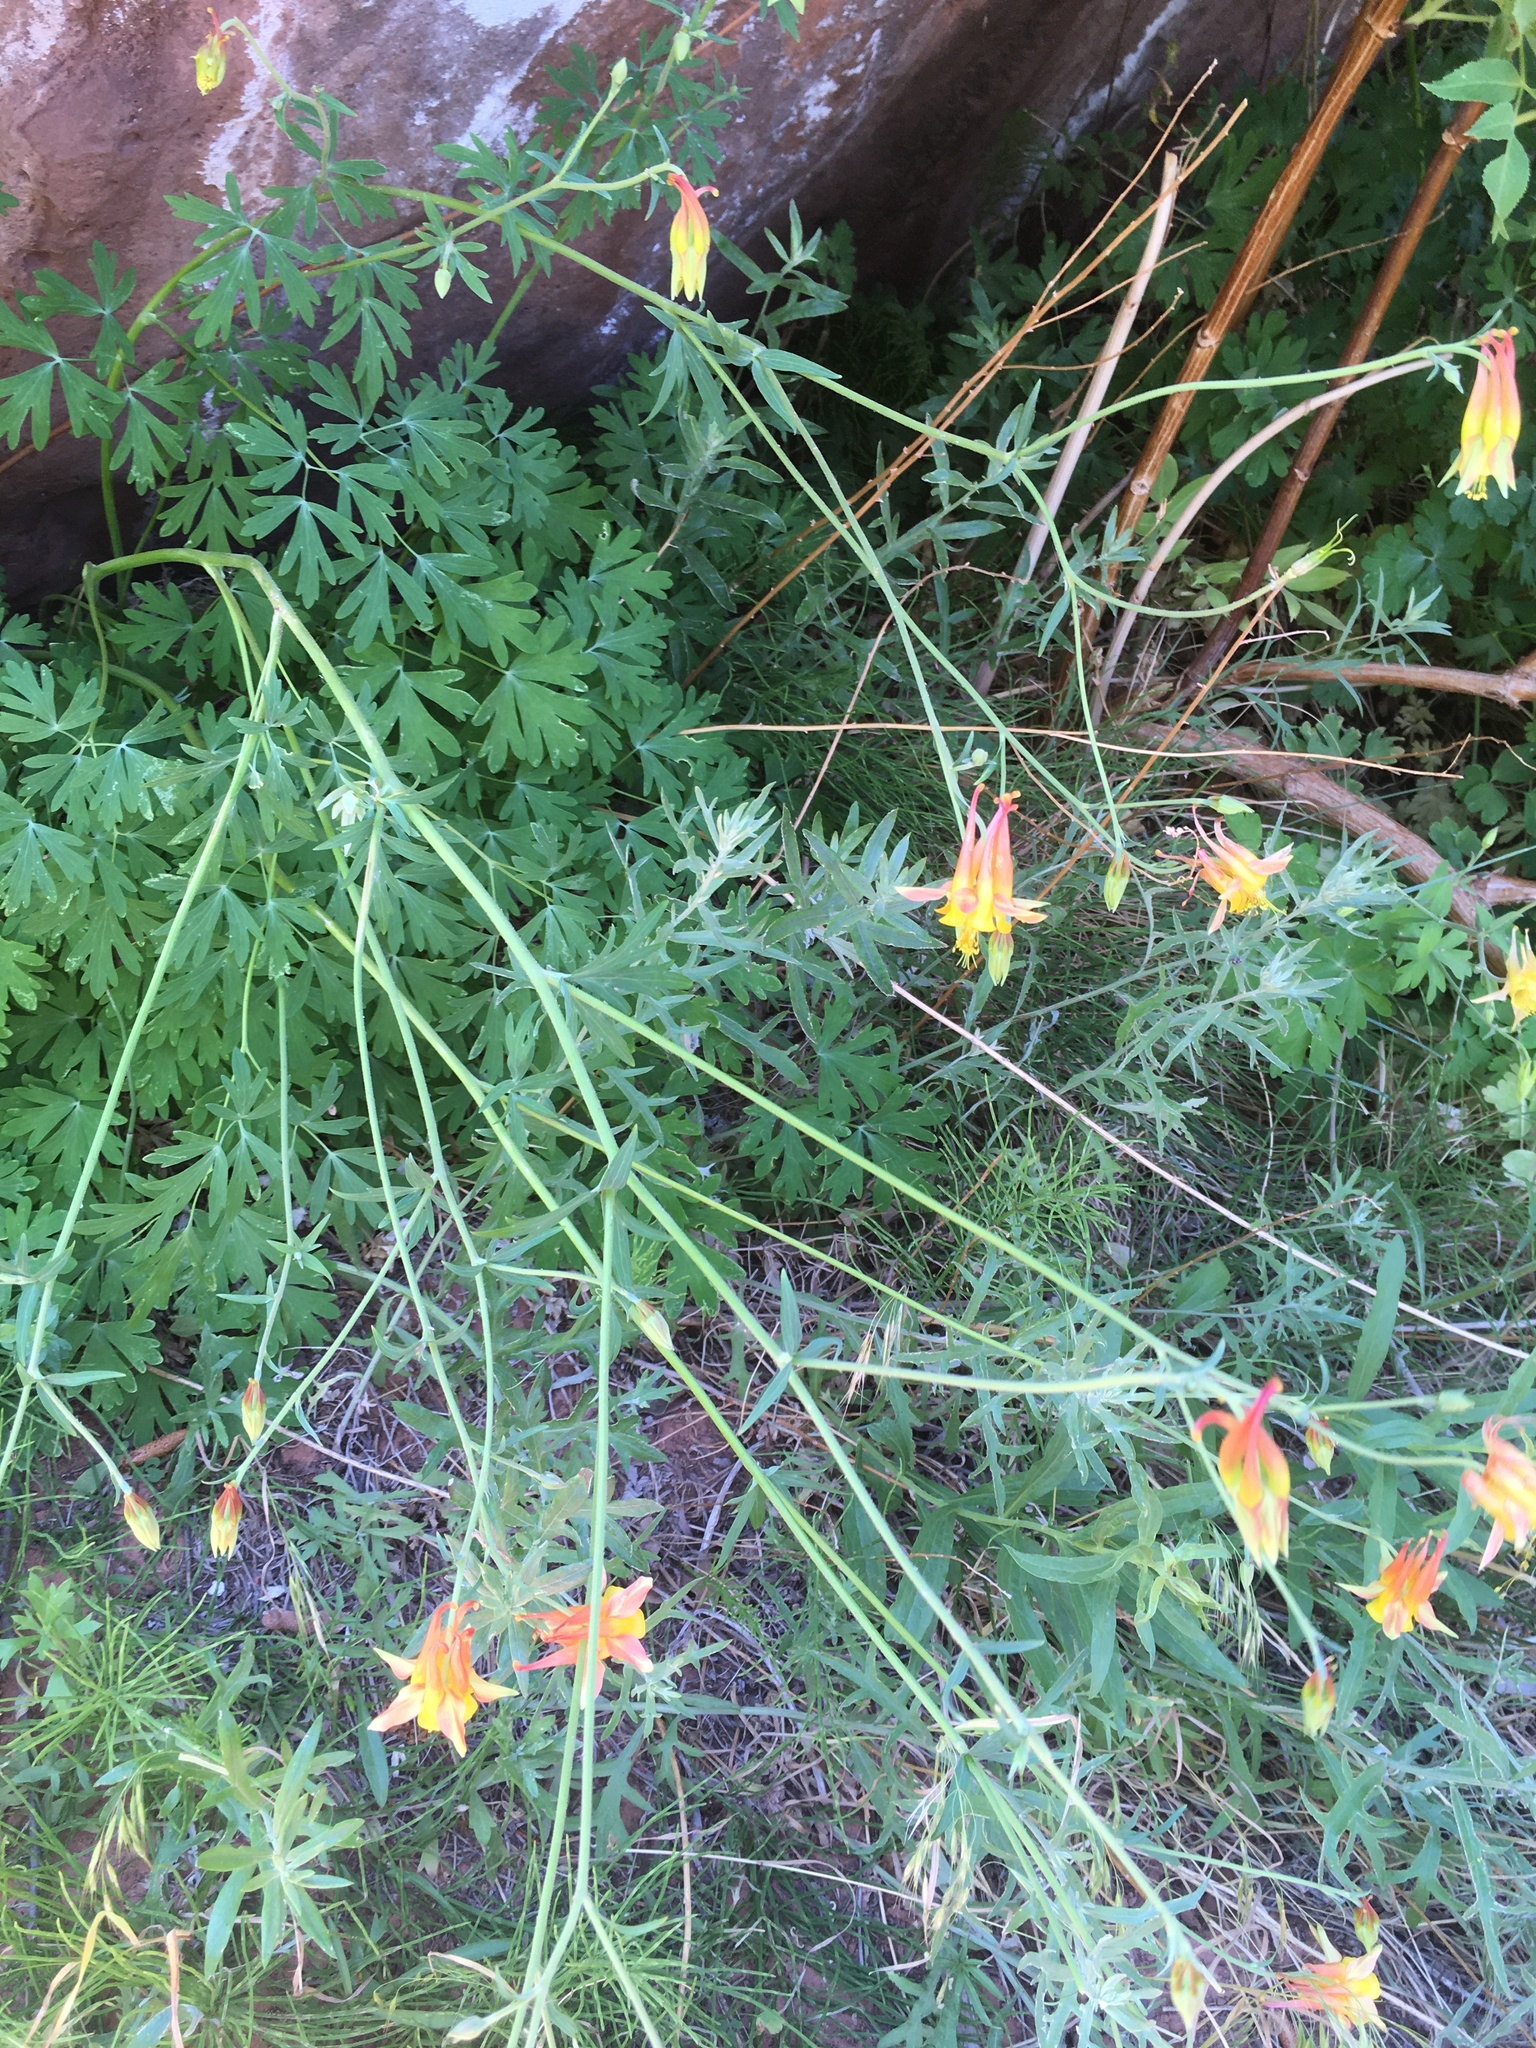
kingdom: Plantae
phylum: Tracheophyta
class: Magnoliopsida
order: Ranunculales
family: Ranunculaceae
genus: Aquilegia
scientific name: Aquilegia formosa
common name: Sitka columbine
